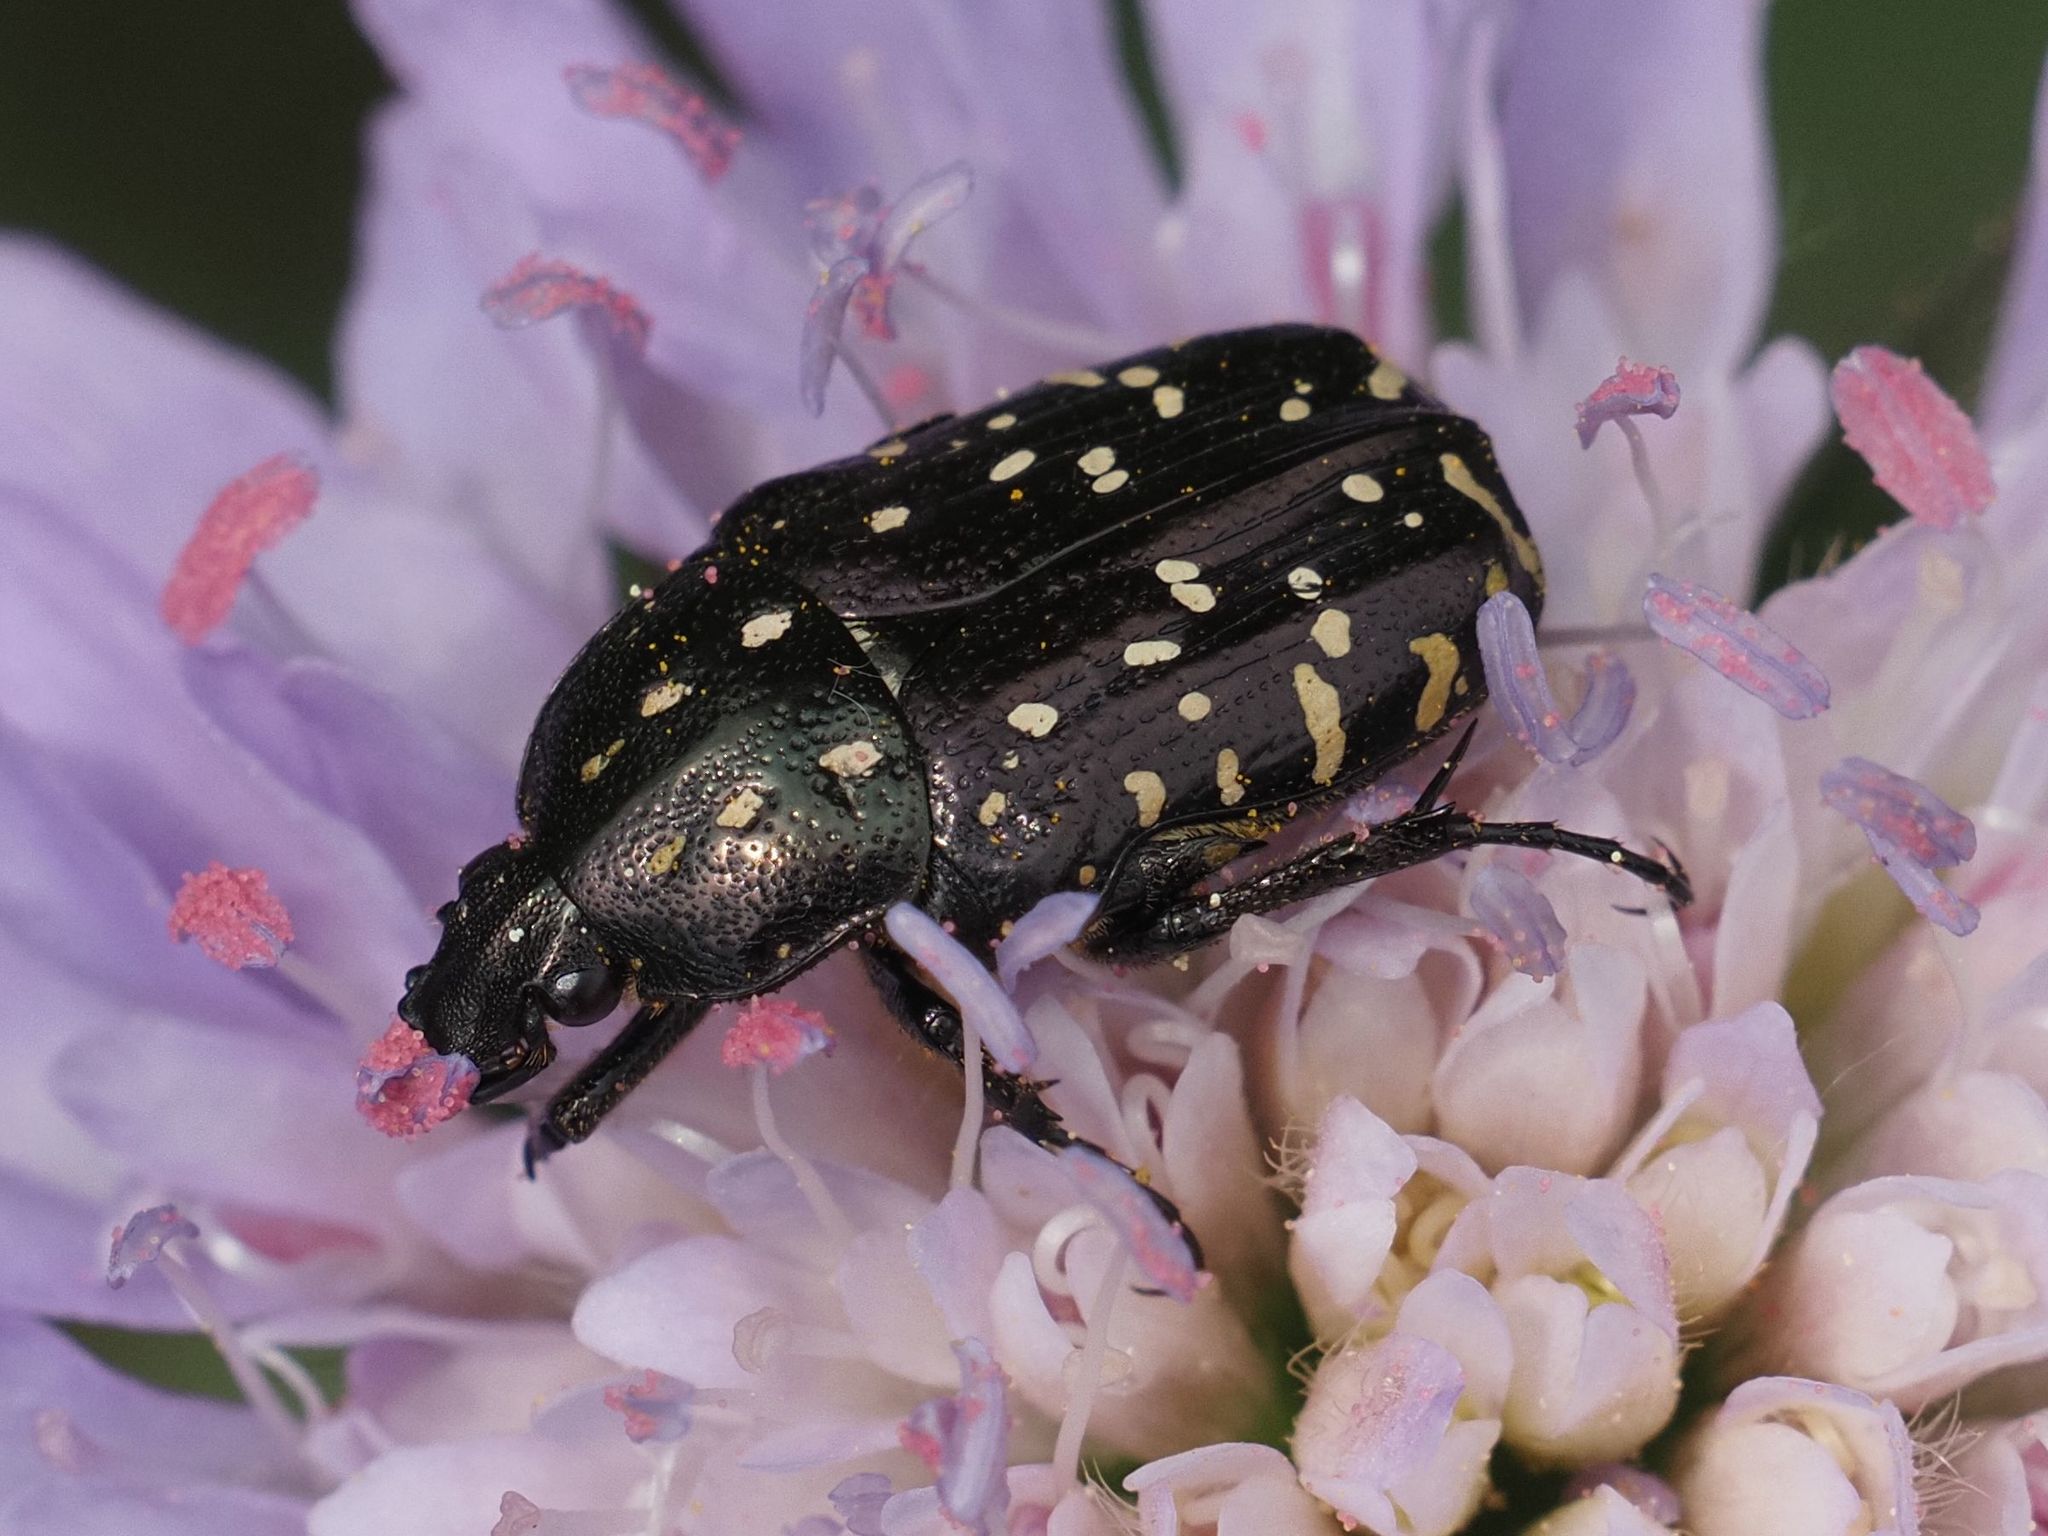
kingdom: Animalia
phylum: Arthropoda
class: Insecta
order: Coleoptera
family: Scarabaeidae
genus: Oxythyrea
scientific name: Oxythyrea funesta
